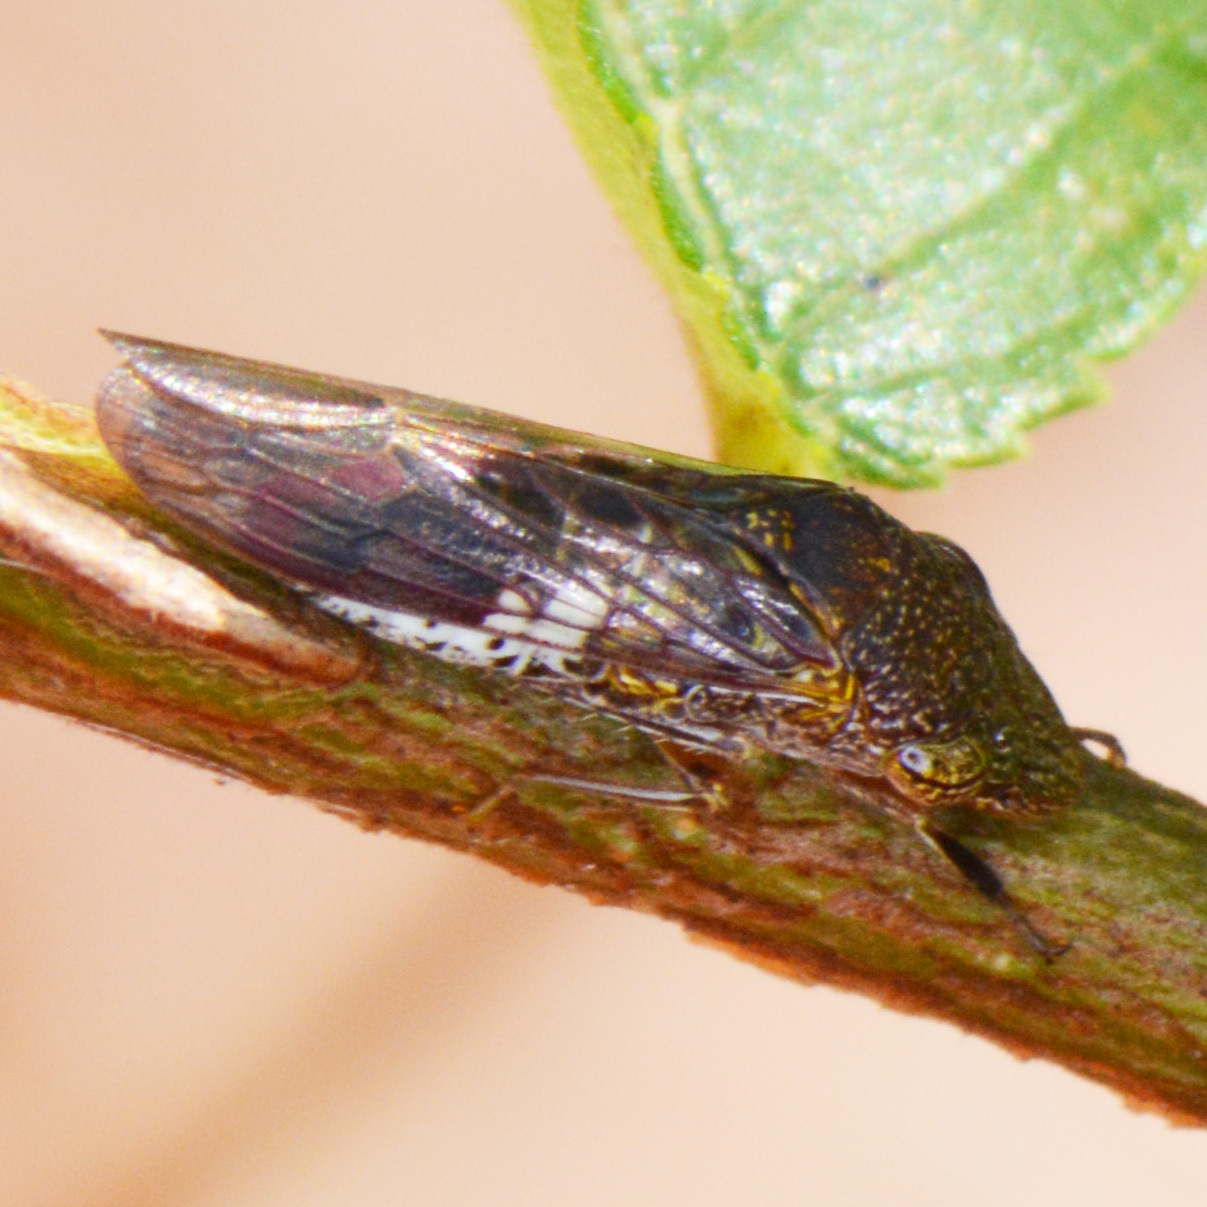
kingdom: Animalia
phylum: Arthropoda
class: Insecta
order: Hemiptera
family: Cicadellidae
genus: Homalodisca
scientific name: Homalodisca vitripennis
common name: Glassy-winged sharpshooter
